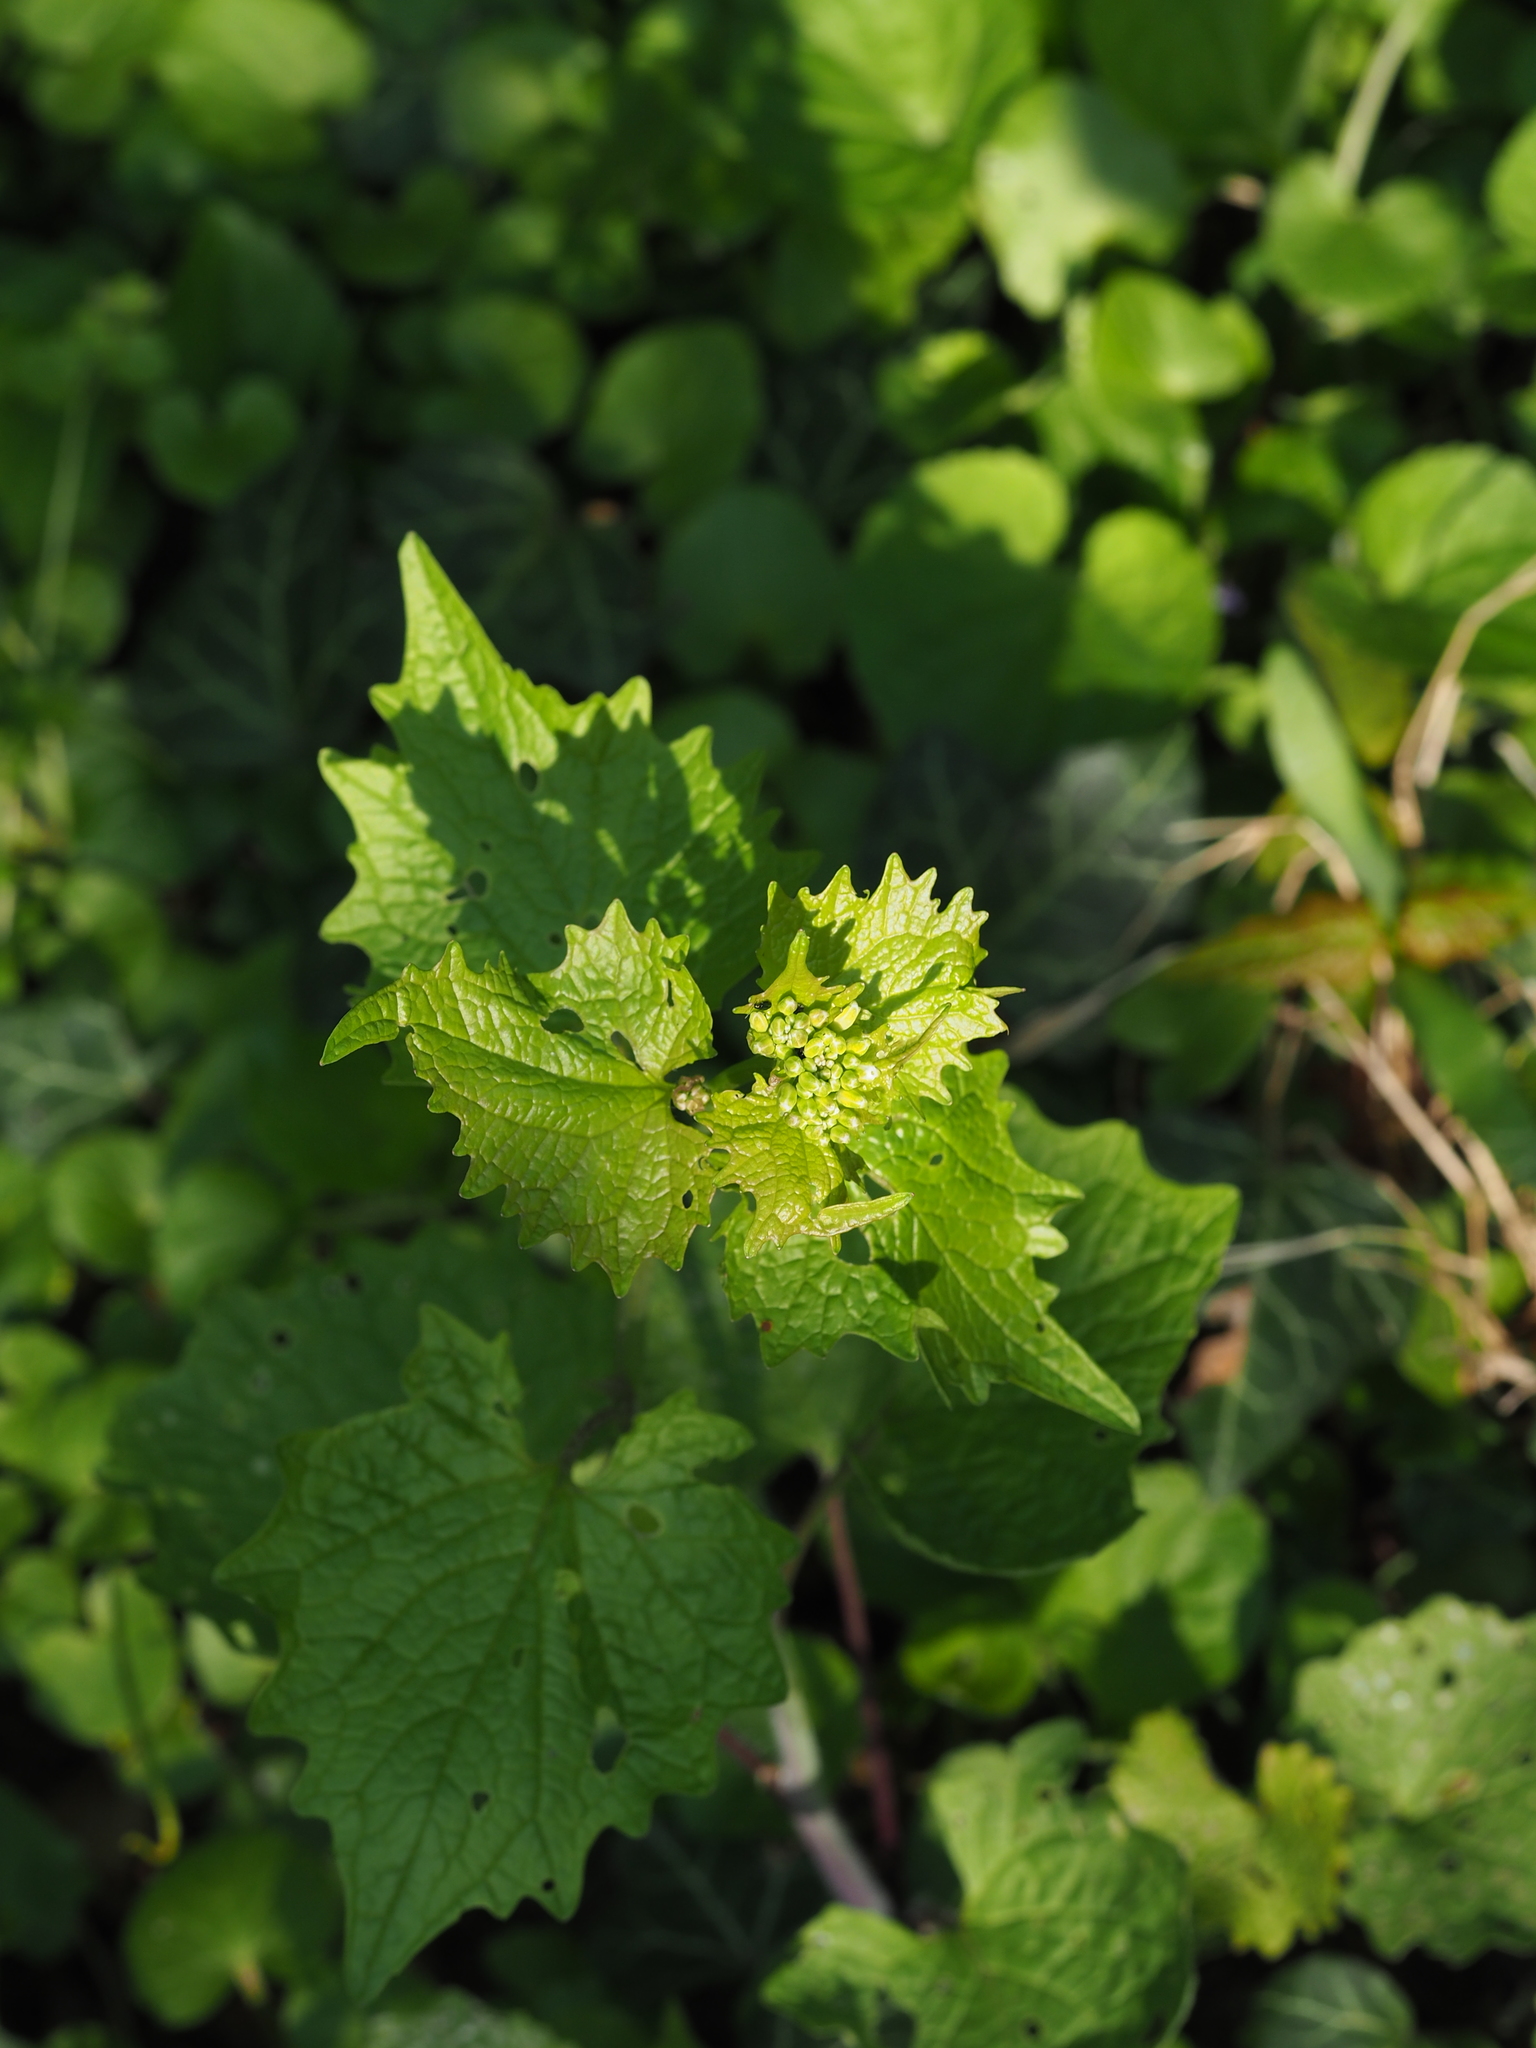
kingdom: Plantae
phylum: Tracheophyta
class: Magnoliopsida
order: Brassicales
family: Brassicaceae
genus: Alliaria
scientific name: Alliaria petiolata
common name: Garlic mustard
